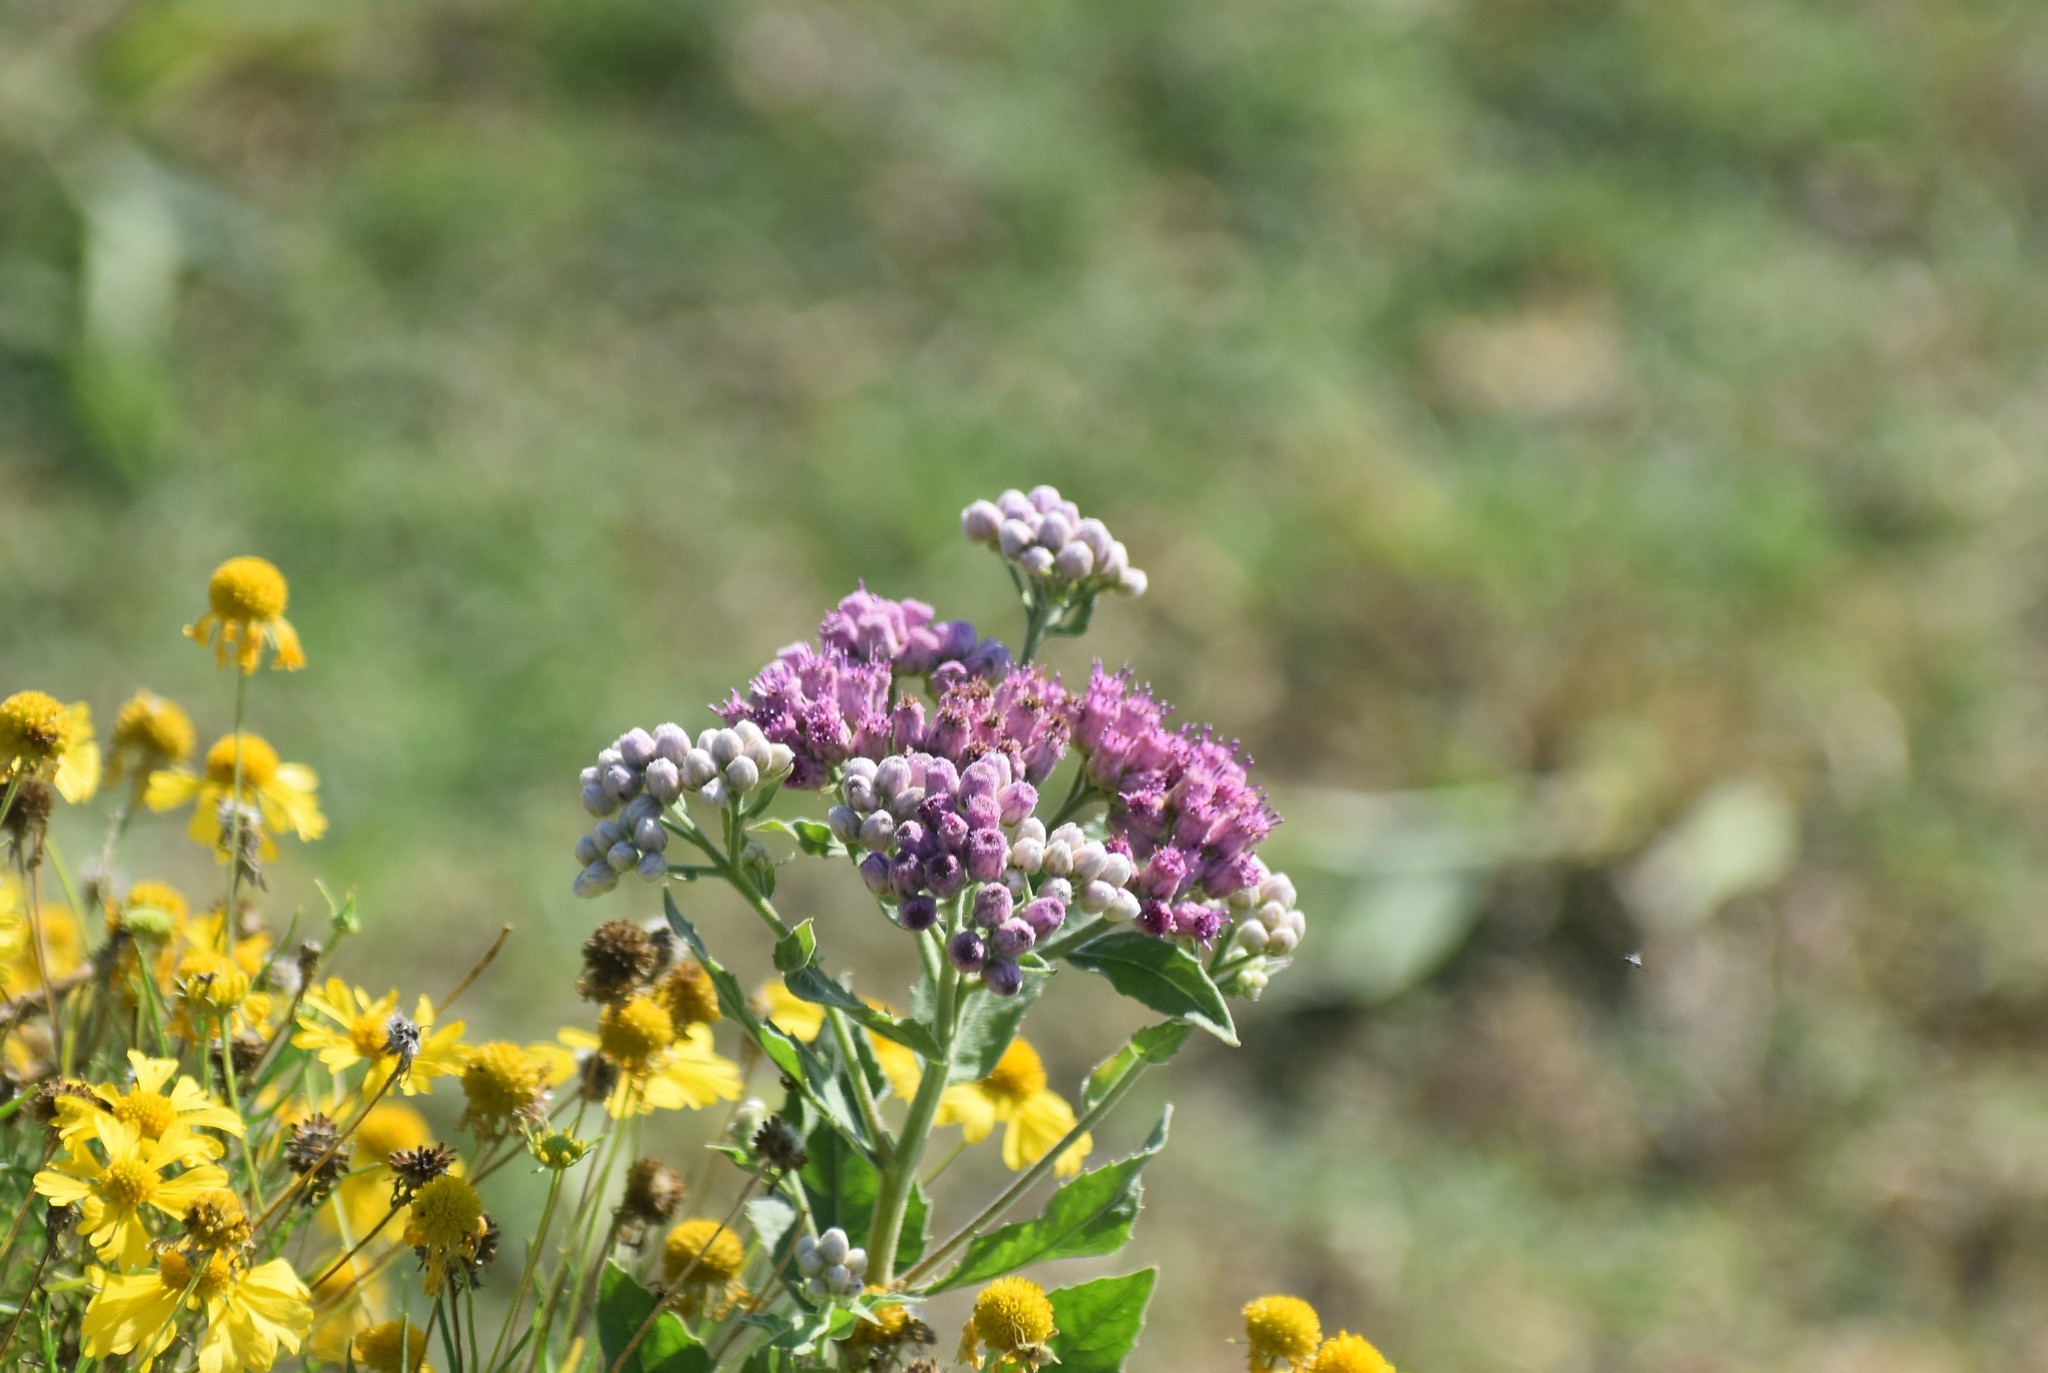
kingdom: Plantae
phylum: Tracheophyta
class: Magnoliopsida
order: Asterales
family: Asteraceae
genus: Pluchea
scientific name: Pluchea odorata
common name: Saltmarsh fleabane
